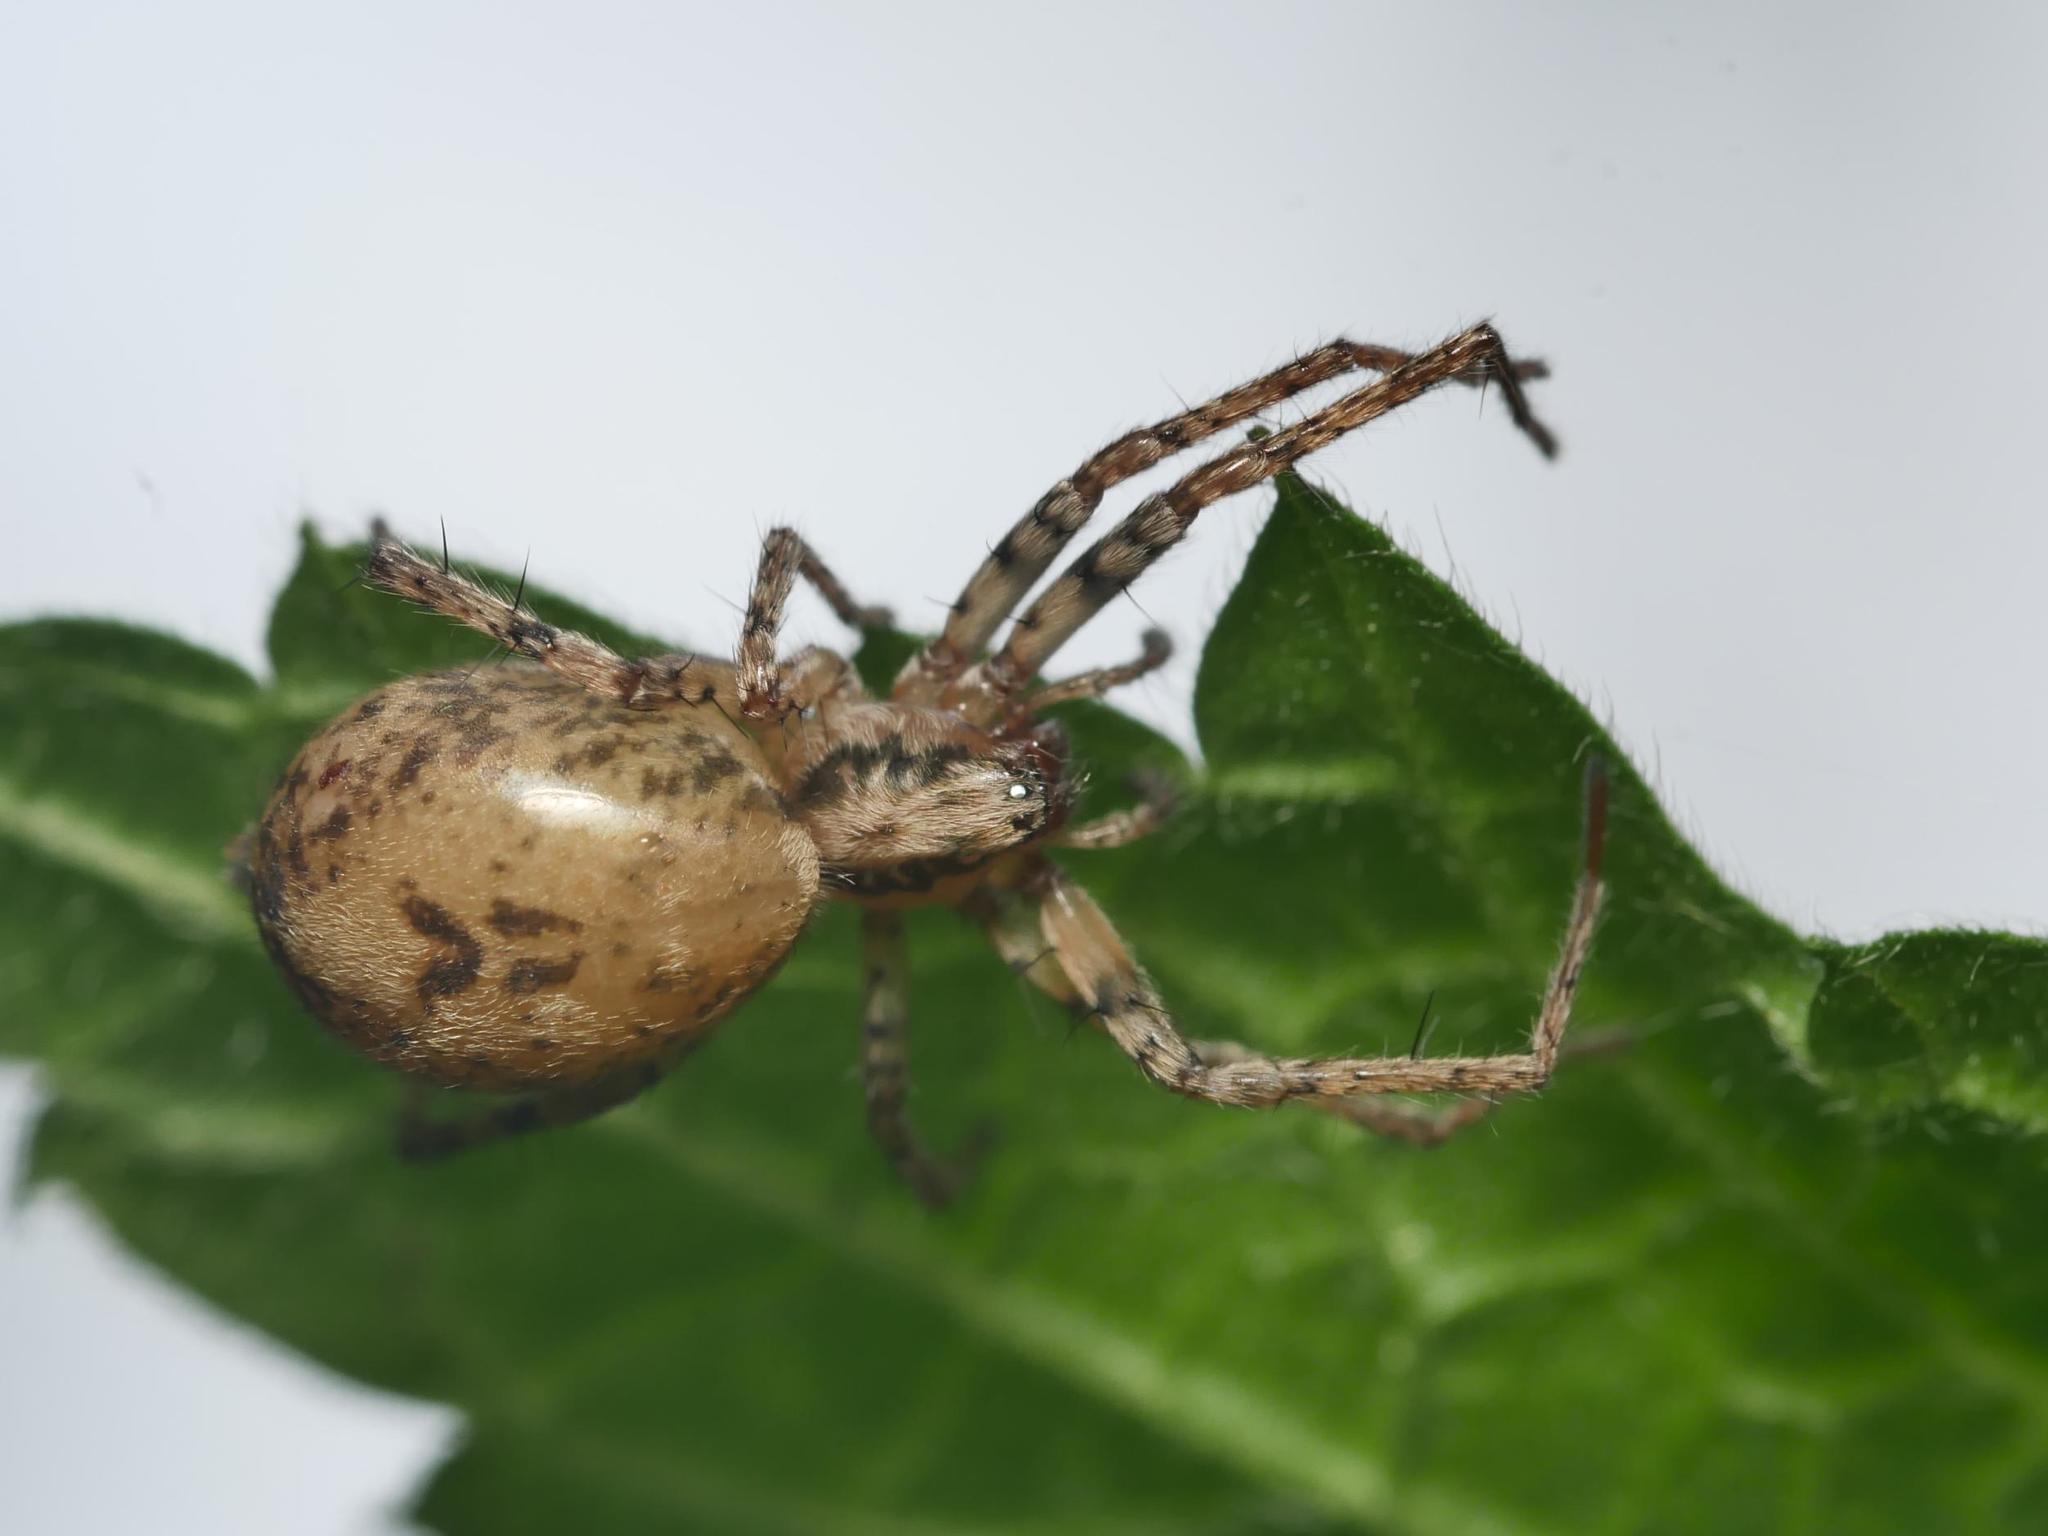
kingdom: Animalia
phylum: Arthropoda
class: Arachnida
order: Araneae
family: Anyphaenidae
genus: Anyphaena
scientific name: Anyphaena accentuata
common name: Buzzing spider
